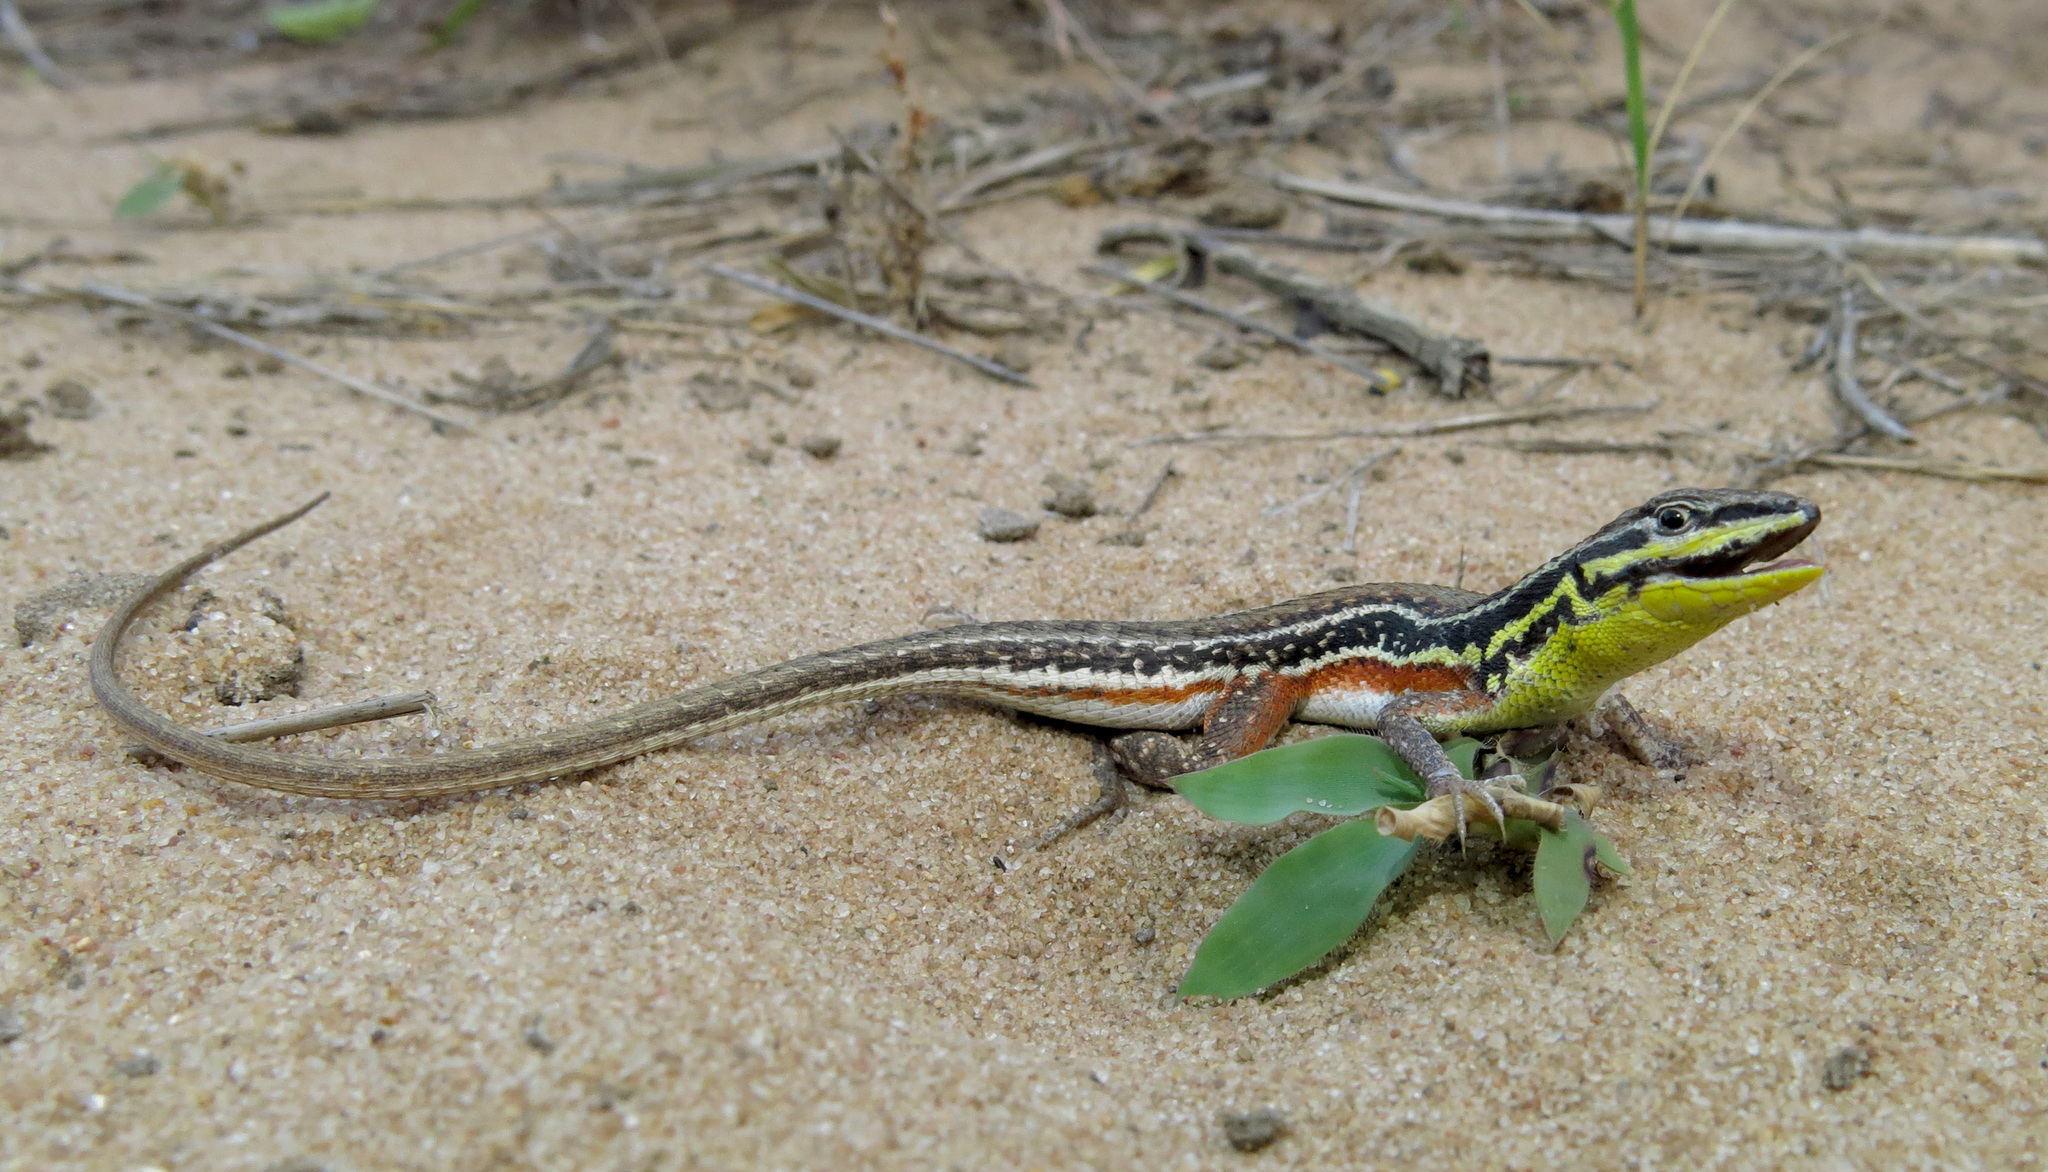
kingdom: Animalia
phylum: Chordata
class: Squamata
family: Lacertidae
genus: Ichnotropis
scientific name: Ichnotropis capensis
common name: Cape rough-scaled lizard
